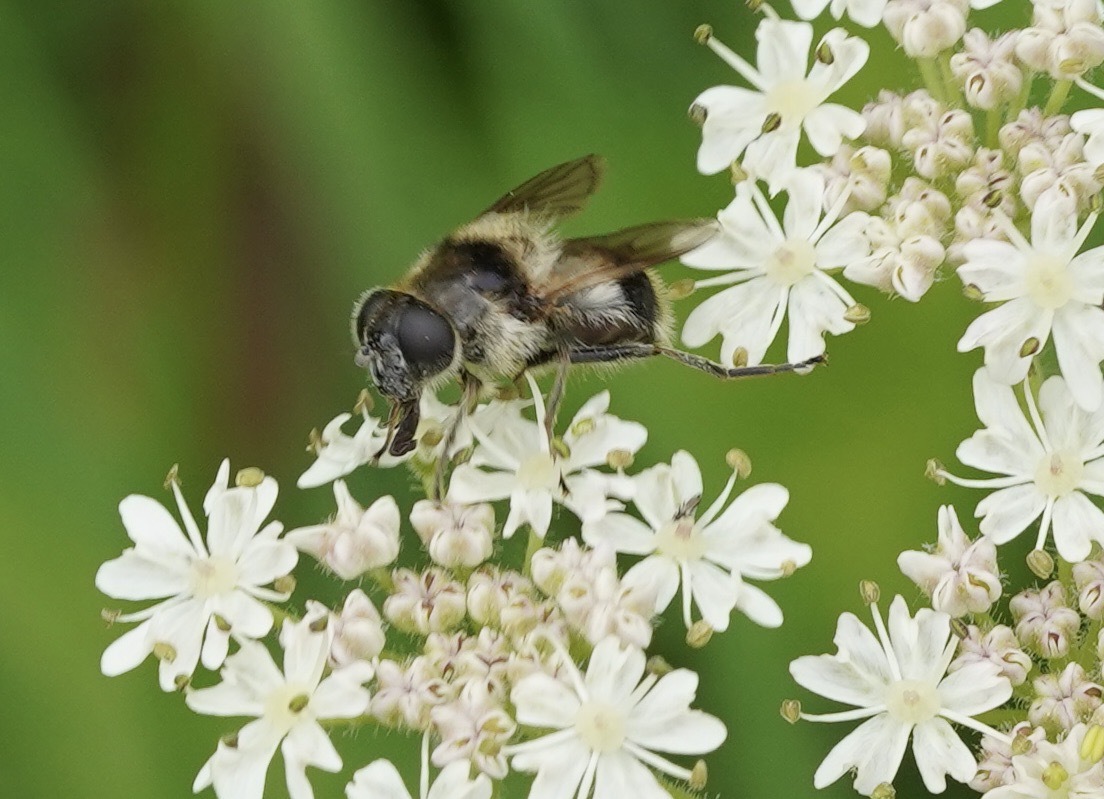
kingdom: Animalia
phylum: Arthropoda
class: Insecta
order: Diptera
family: Syrphidae
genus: Cheilosia
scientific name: Cheilosia illustrata
